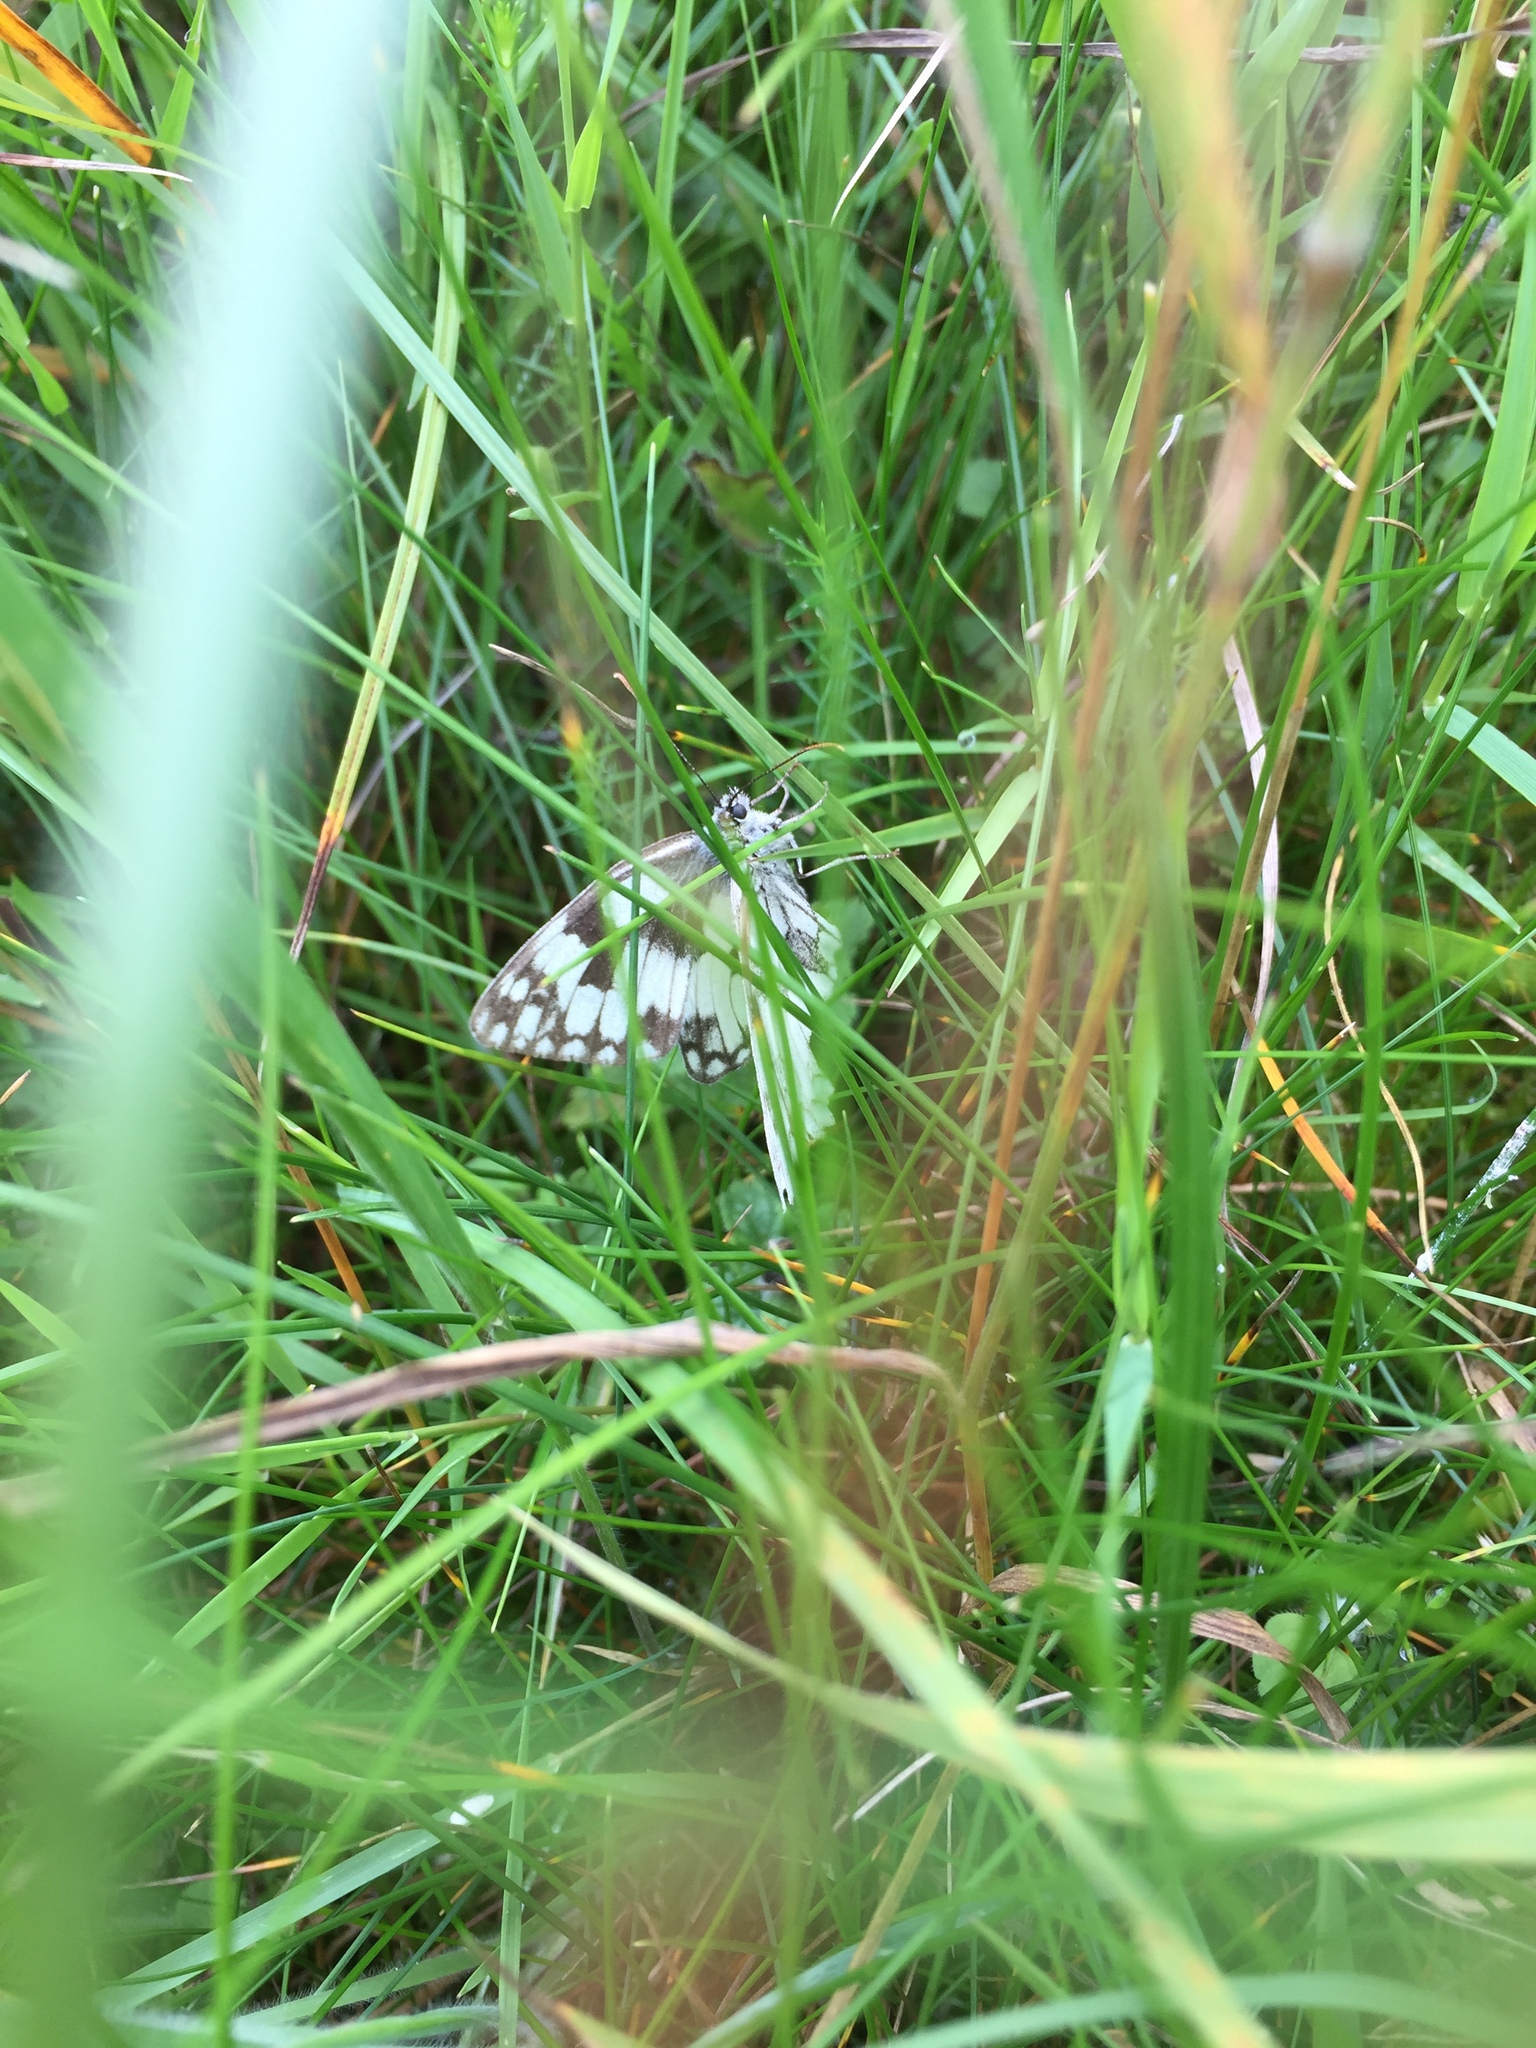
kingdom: Animalia
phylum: Arthropoda
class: Insecta
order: Lepidoptera
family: Nymphalidae
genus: Melanargia
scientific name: Melanargia galathea
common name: Marbled white
